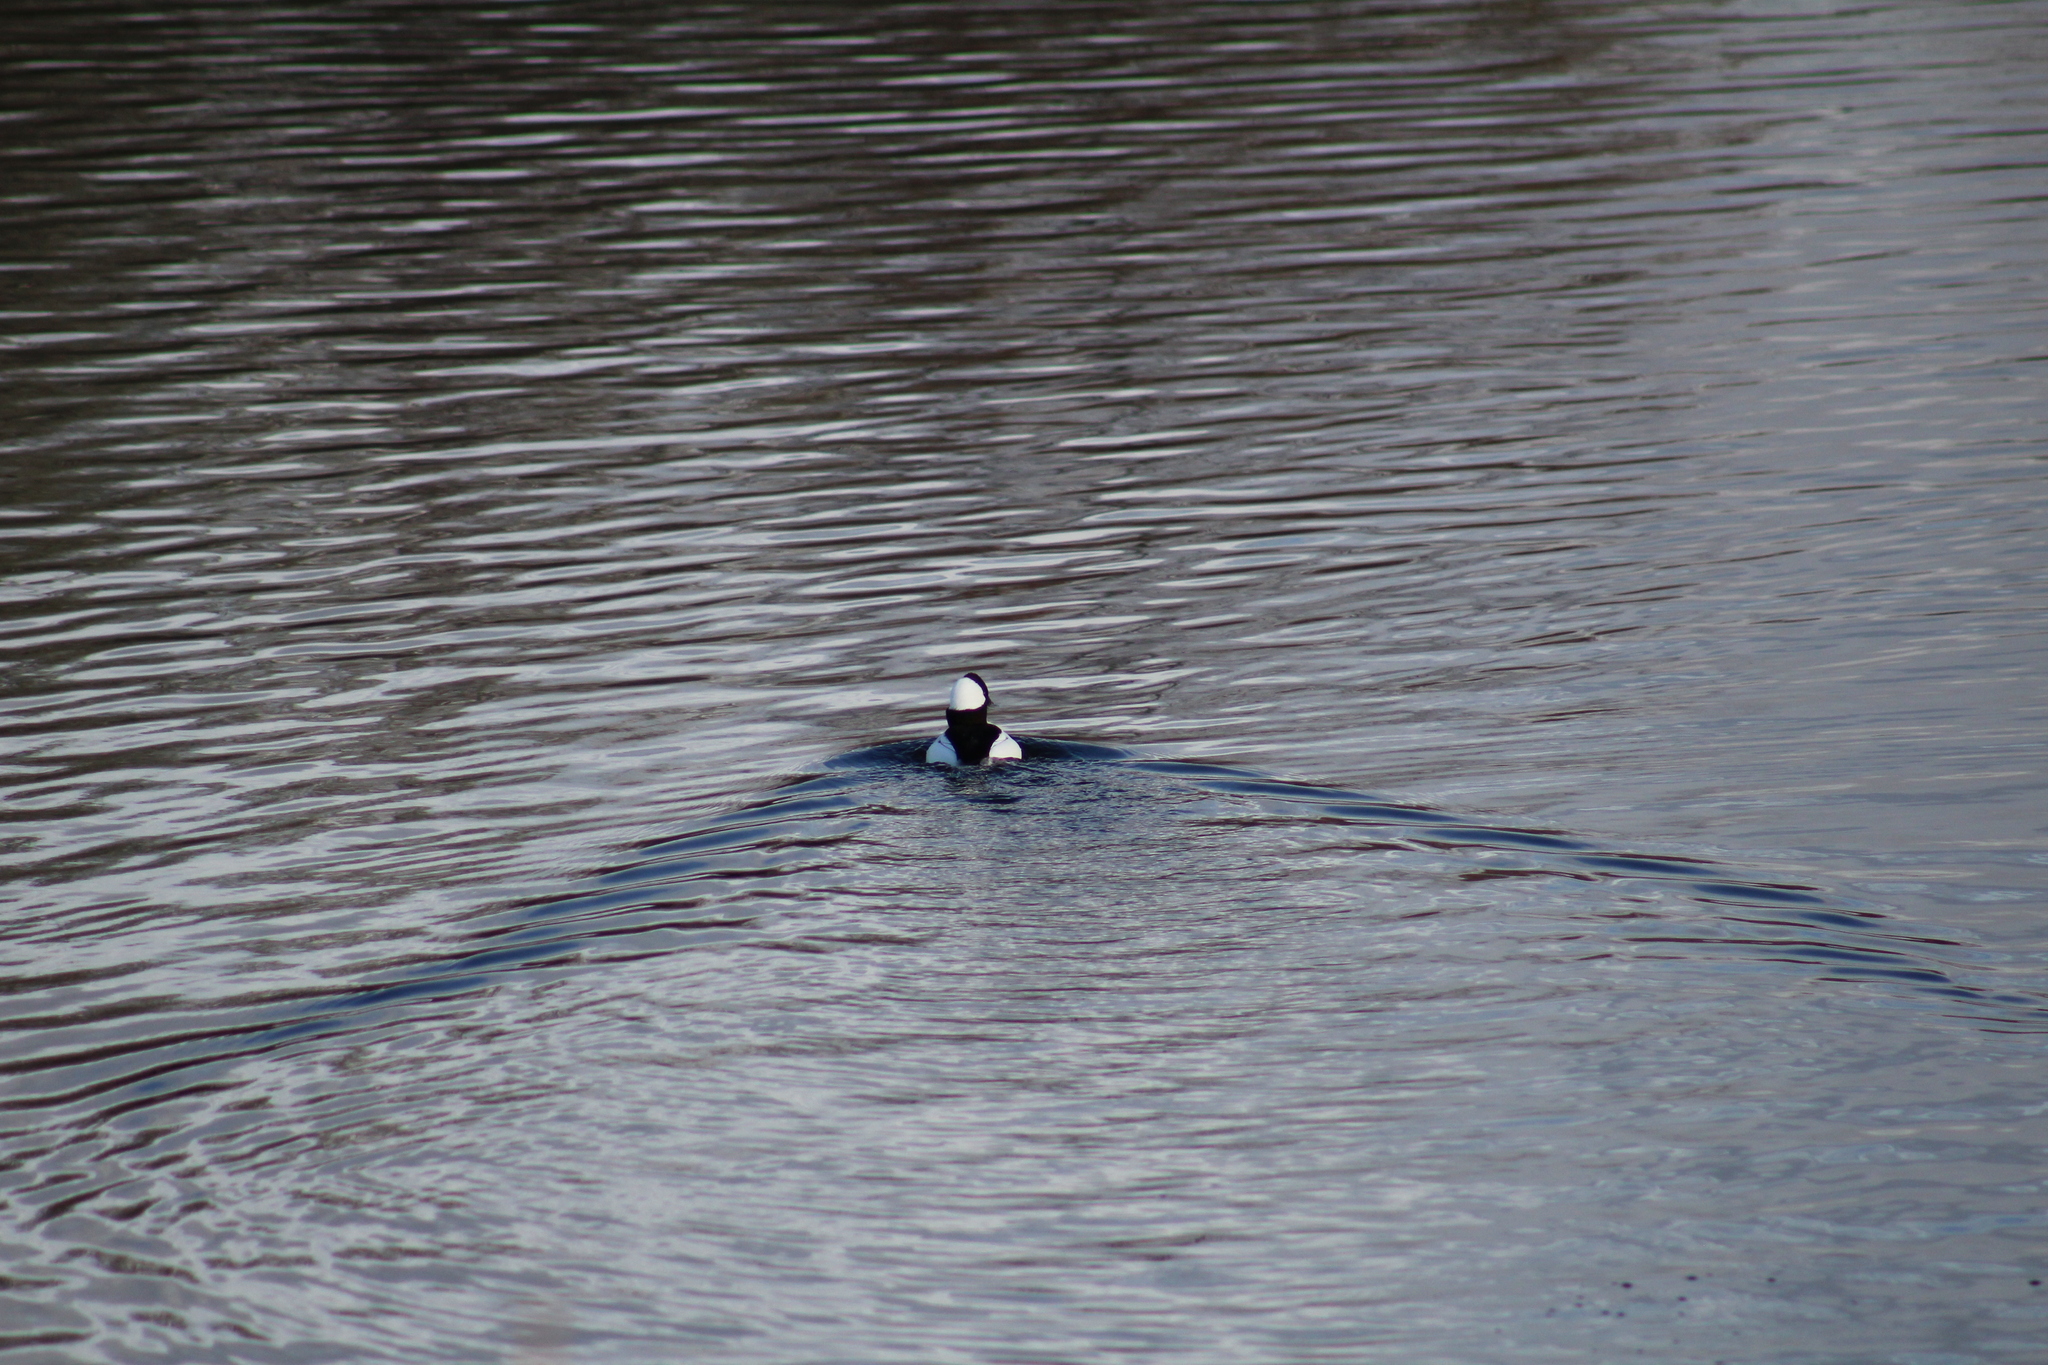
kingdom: Animalia
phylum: Chordata
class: Aves
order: Anseriformes
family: Anatidae
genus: Bucephala
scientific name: Bucephala albeola
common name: Bufflehead
